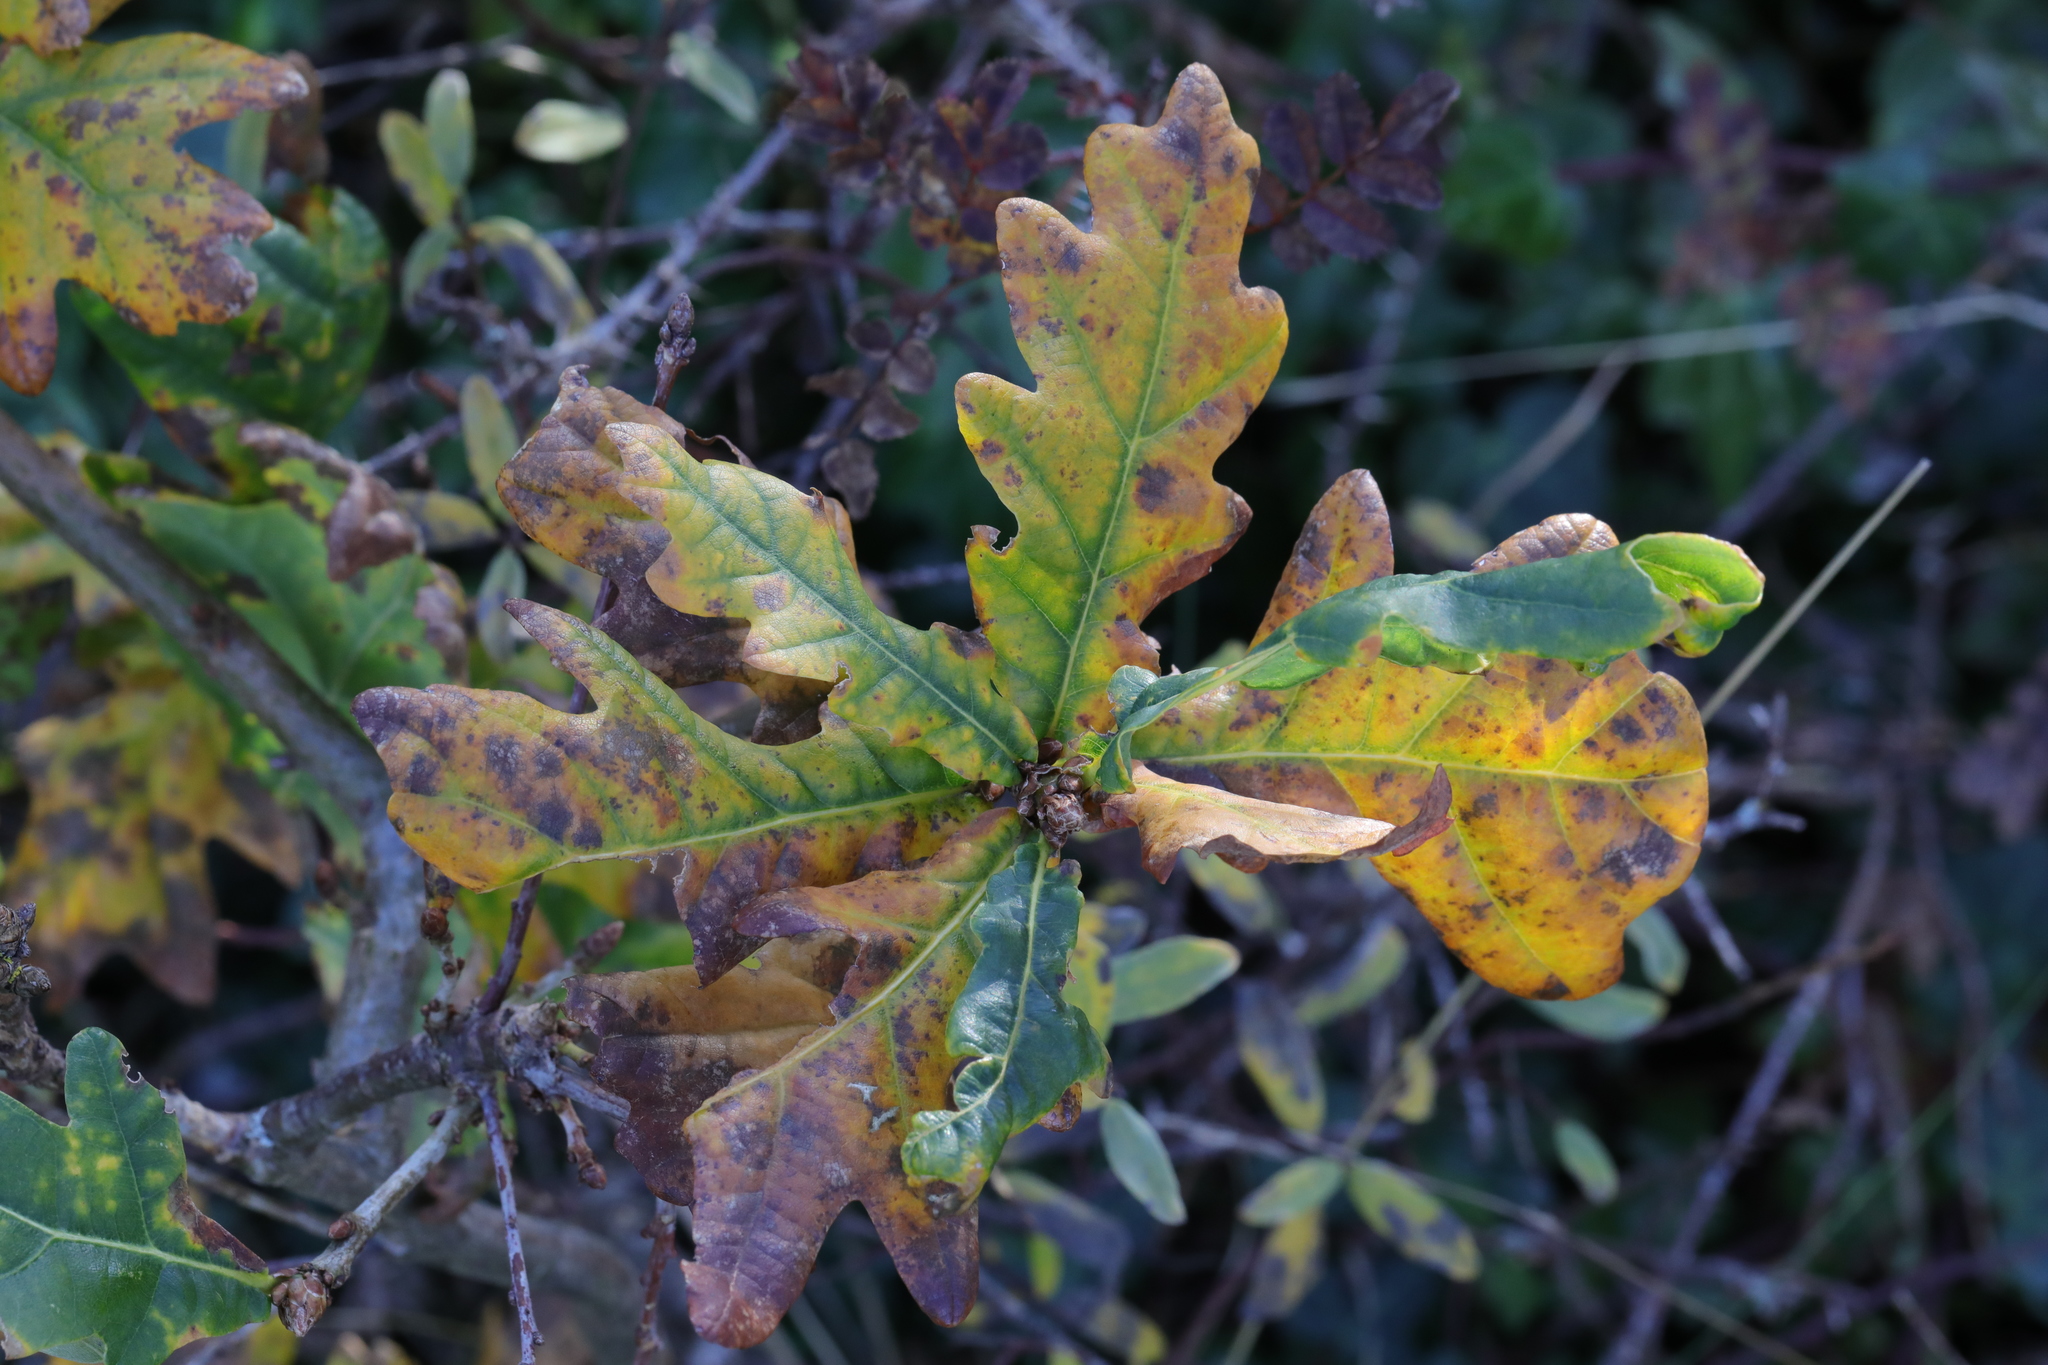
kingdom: Plantae
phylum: Tracheophyta
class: Magnoliopsida
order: Fagales
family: Fagaceae
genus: Quercus
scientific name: Quercus robur
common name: Pedunculate oak
